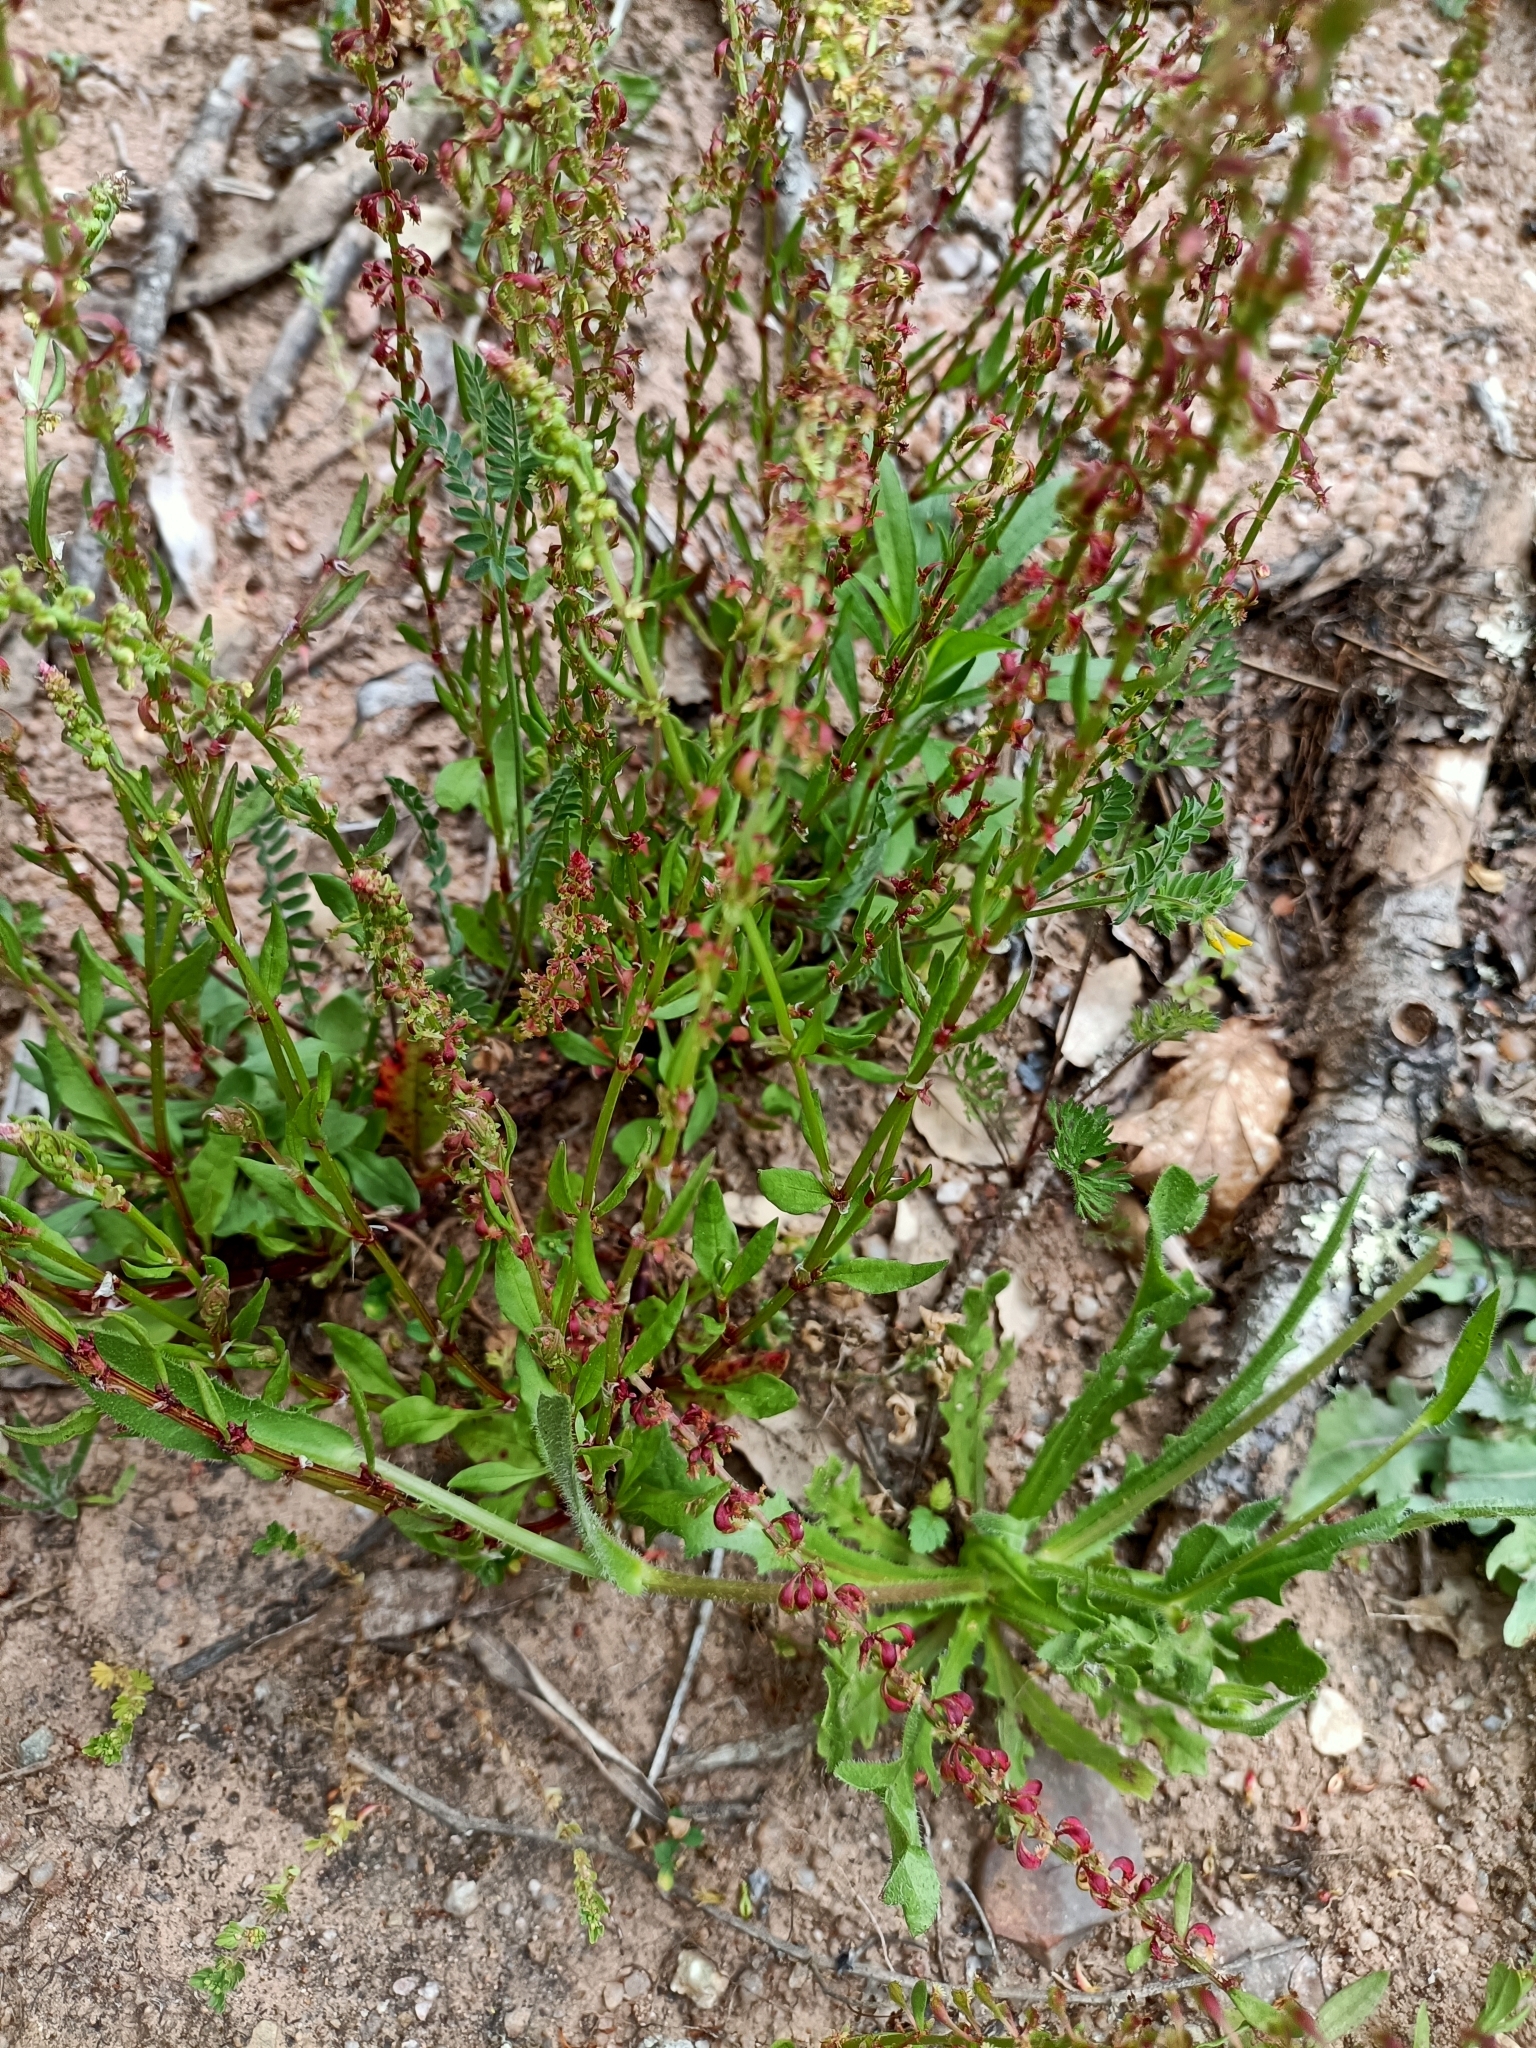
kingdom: Plantae
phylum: Tracheophyta
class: Magnoliopsida
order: Caryophyllales
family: Polygonaceae
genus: Rumex
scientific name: Rumex bucephalophorus
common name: Red dock
